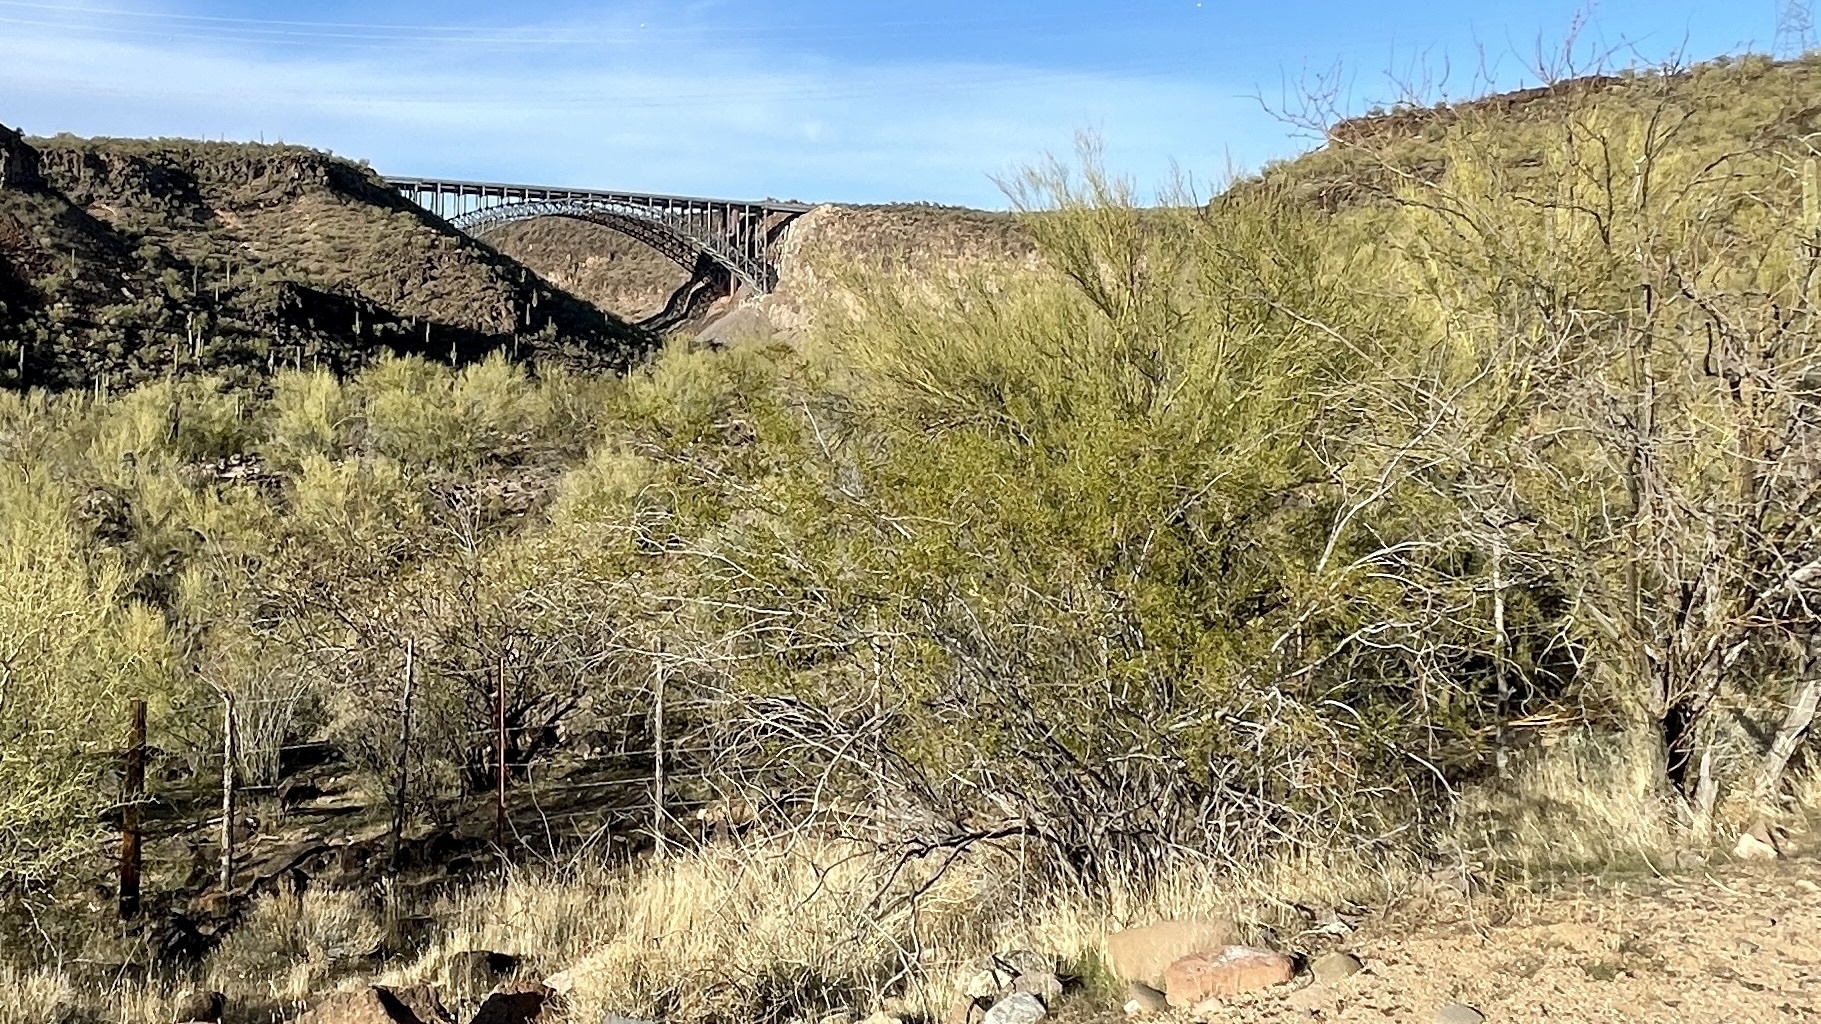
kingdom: Plantae
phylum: Tracheophyta
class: Magnoliopsida
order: Zygophyllales
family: Zygophyllaceae
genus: Larrea
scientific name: Larrea tridentata
